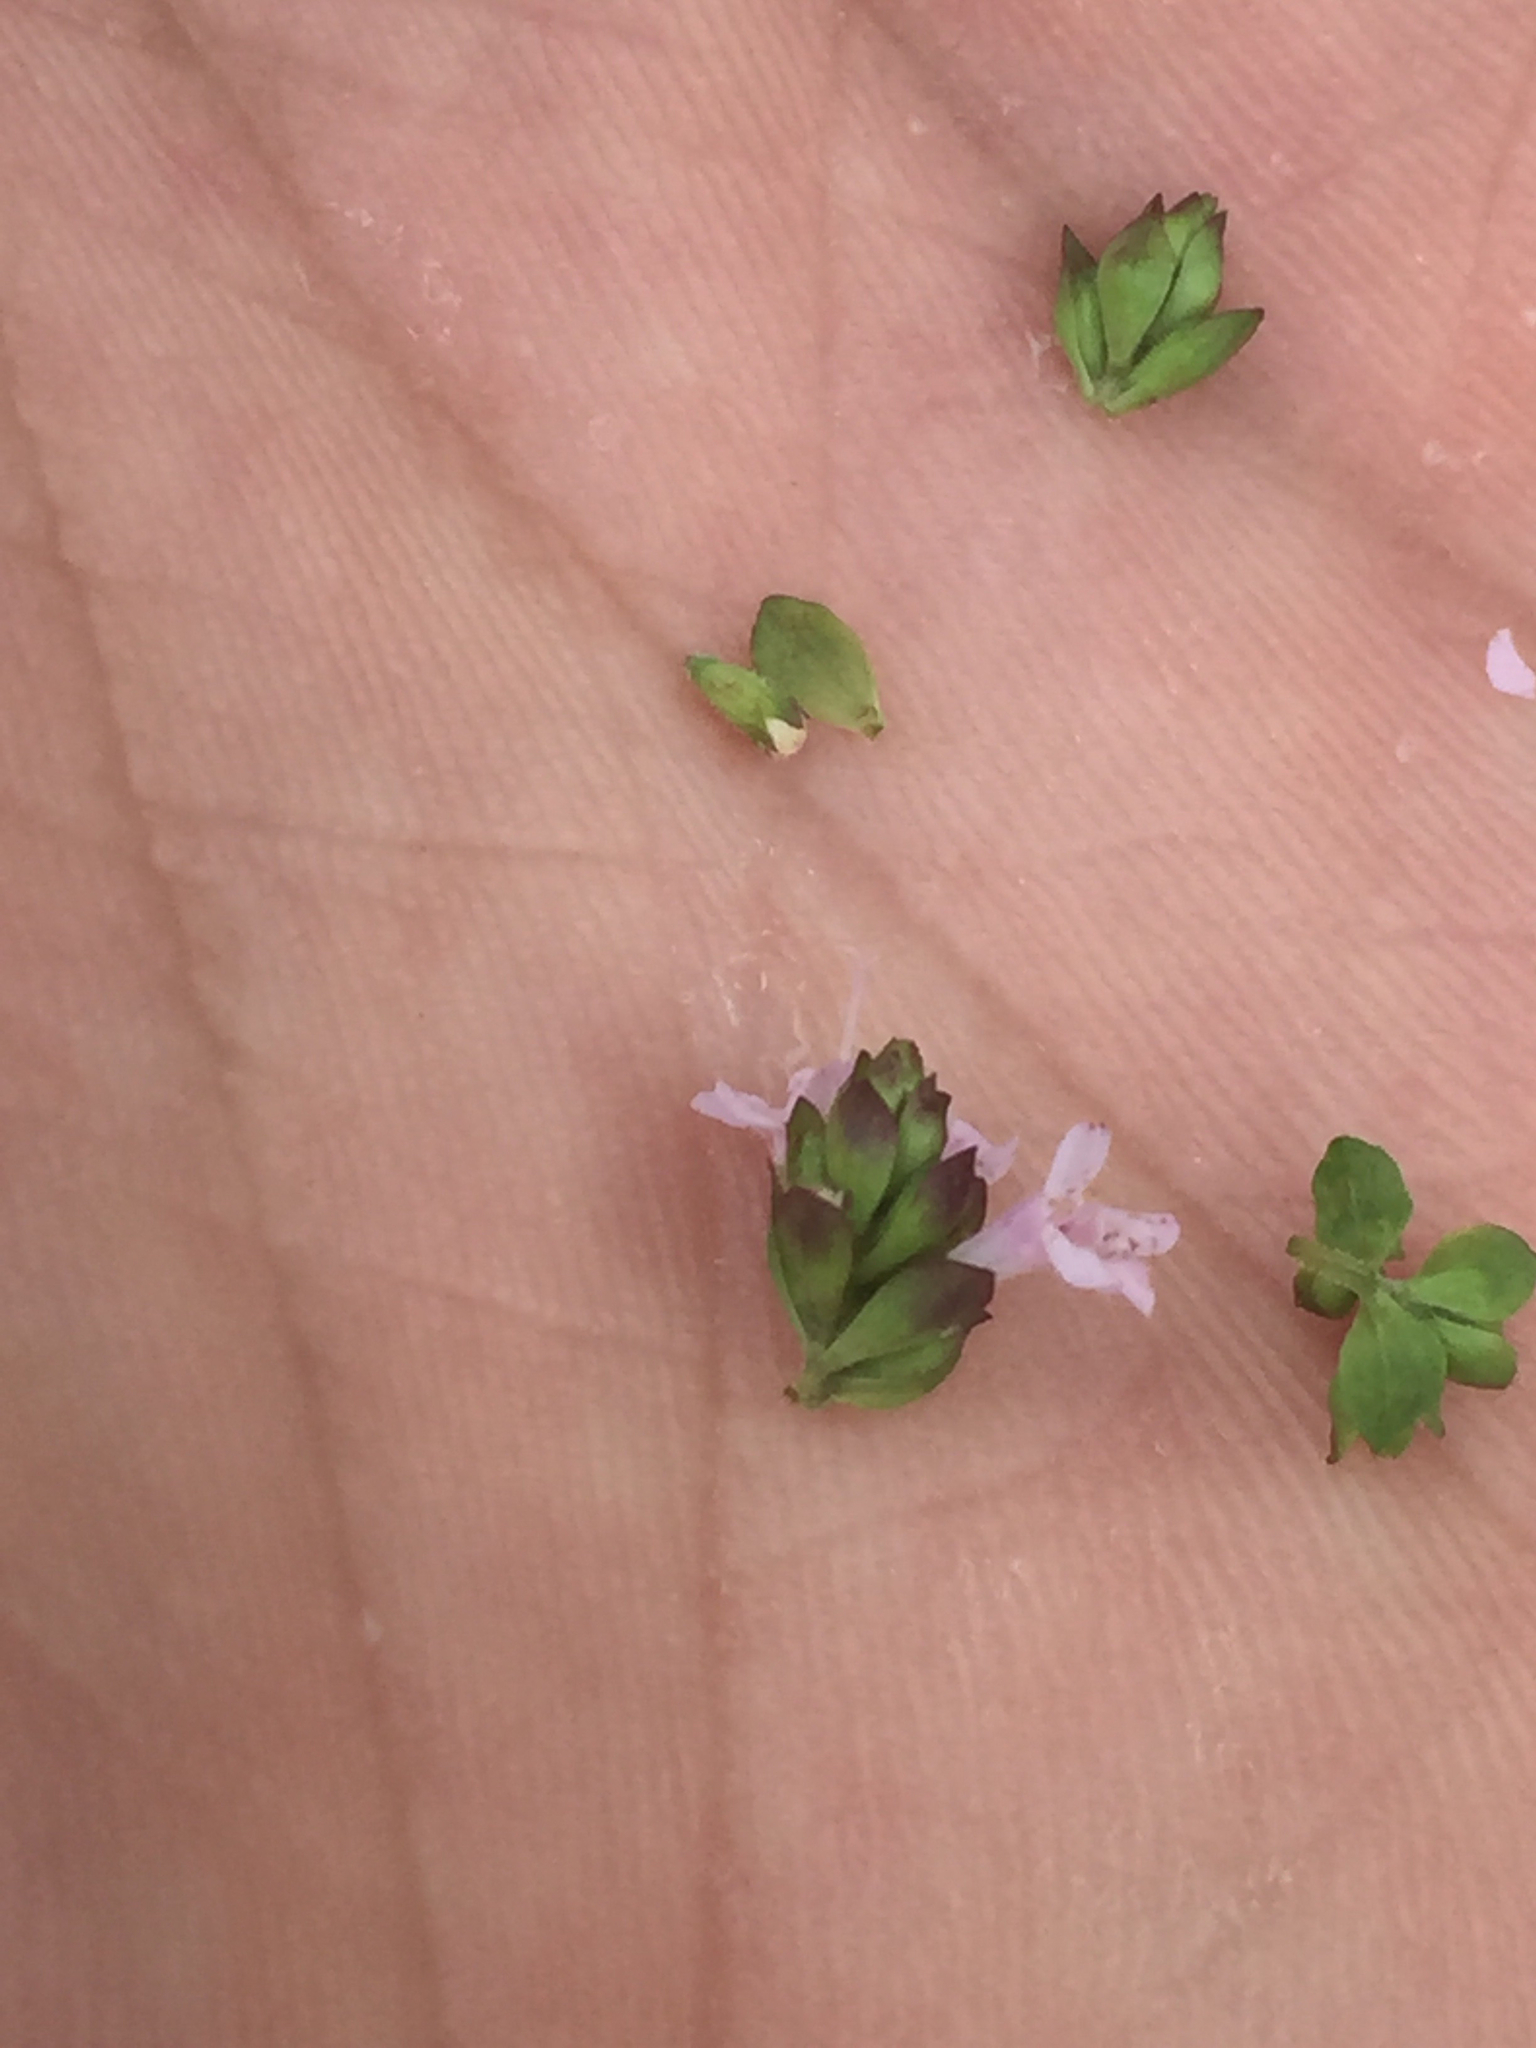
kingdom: Plantae
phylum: Tracheophyta
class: Magnoliopsida
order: Lamiales
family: Lamiaceae
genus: Origanum
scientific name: Origanum vulgare
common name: Wild marjoram
